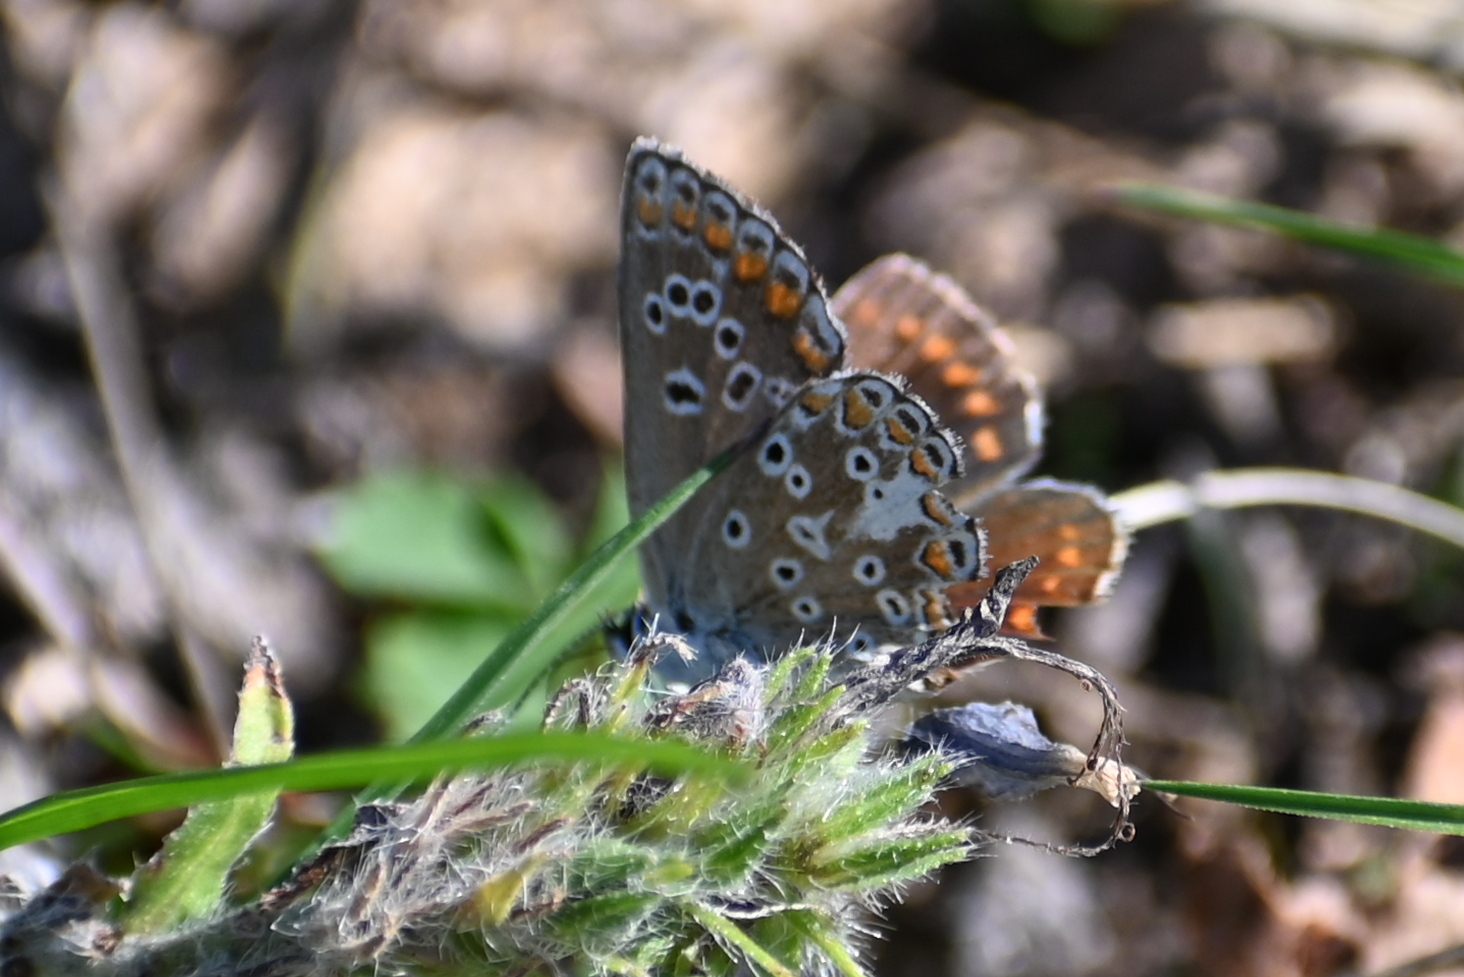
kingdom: Animalia
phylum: Arthropoda
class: Insecta
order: Lepidoptera
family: Lycaenidae
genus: Aricia
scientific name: Aricia agestis
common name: Brown argus
